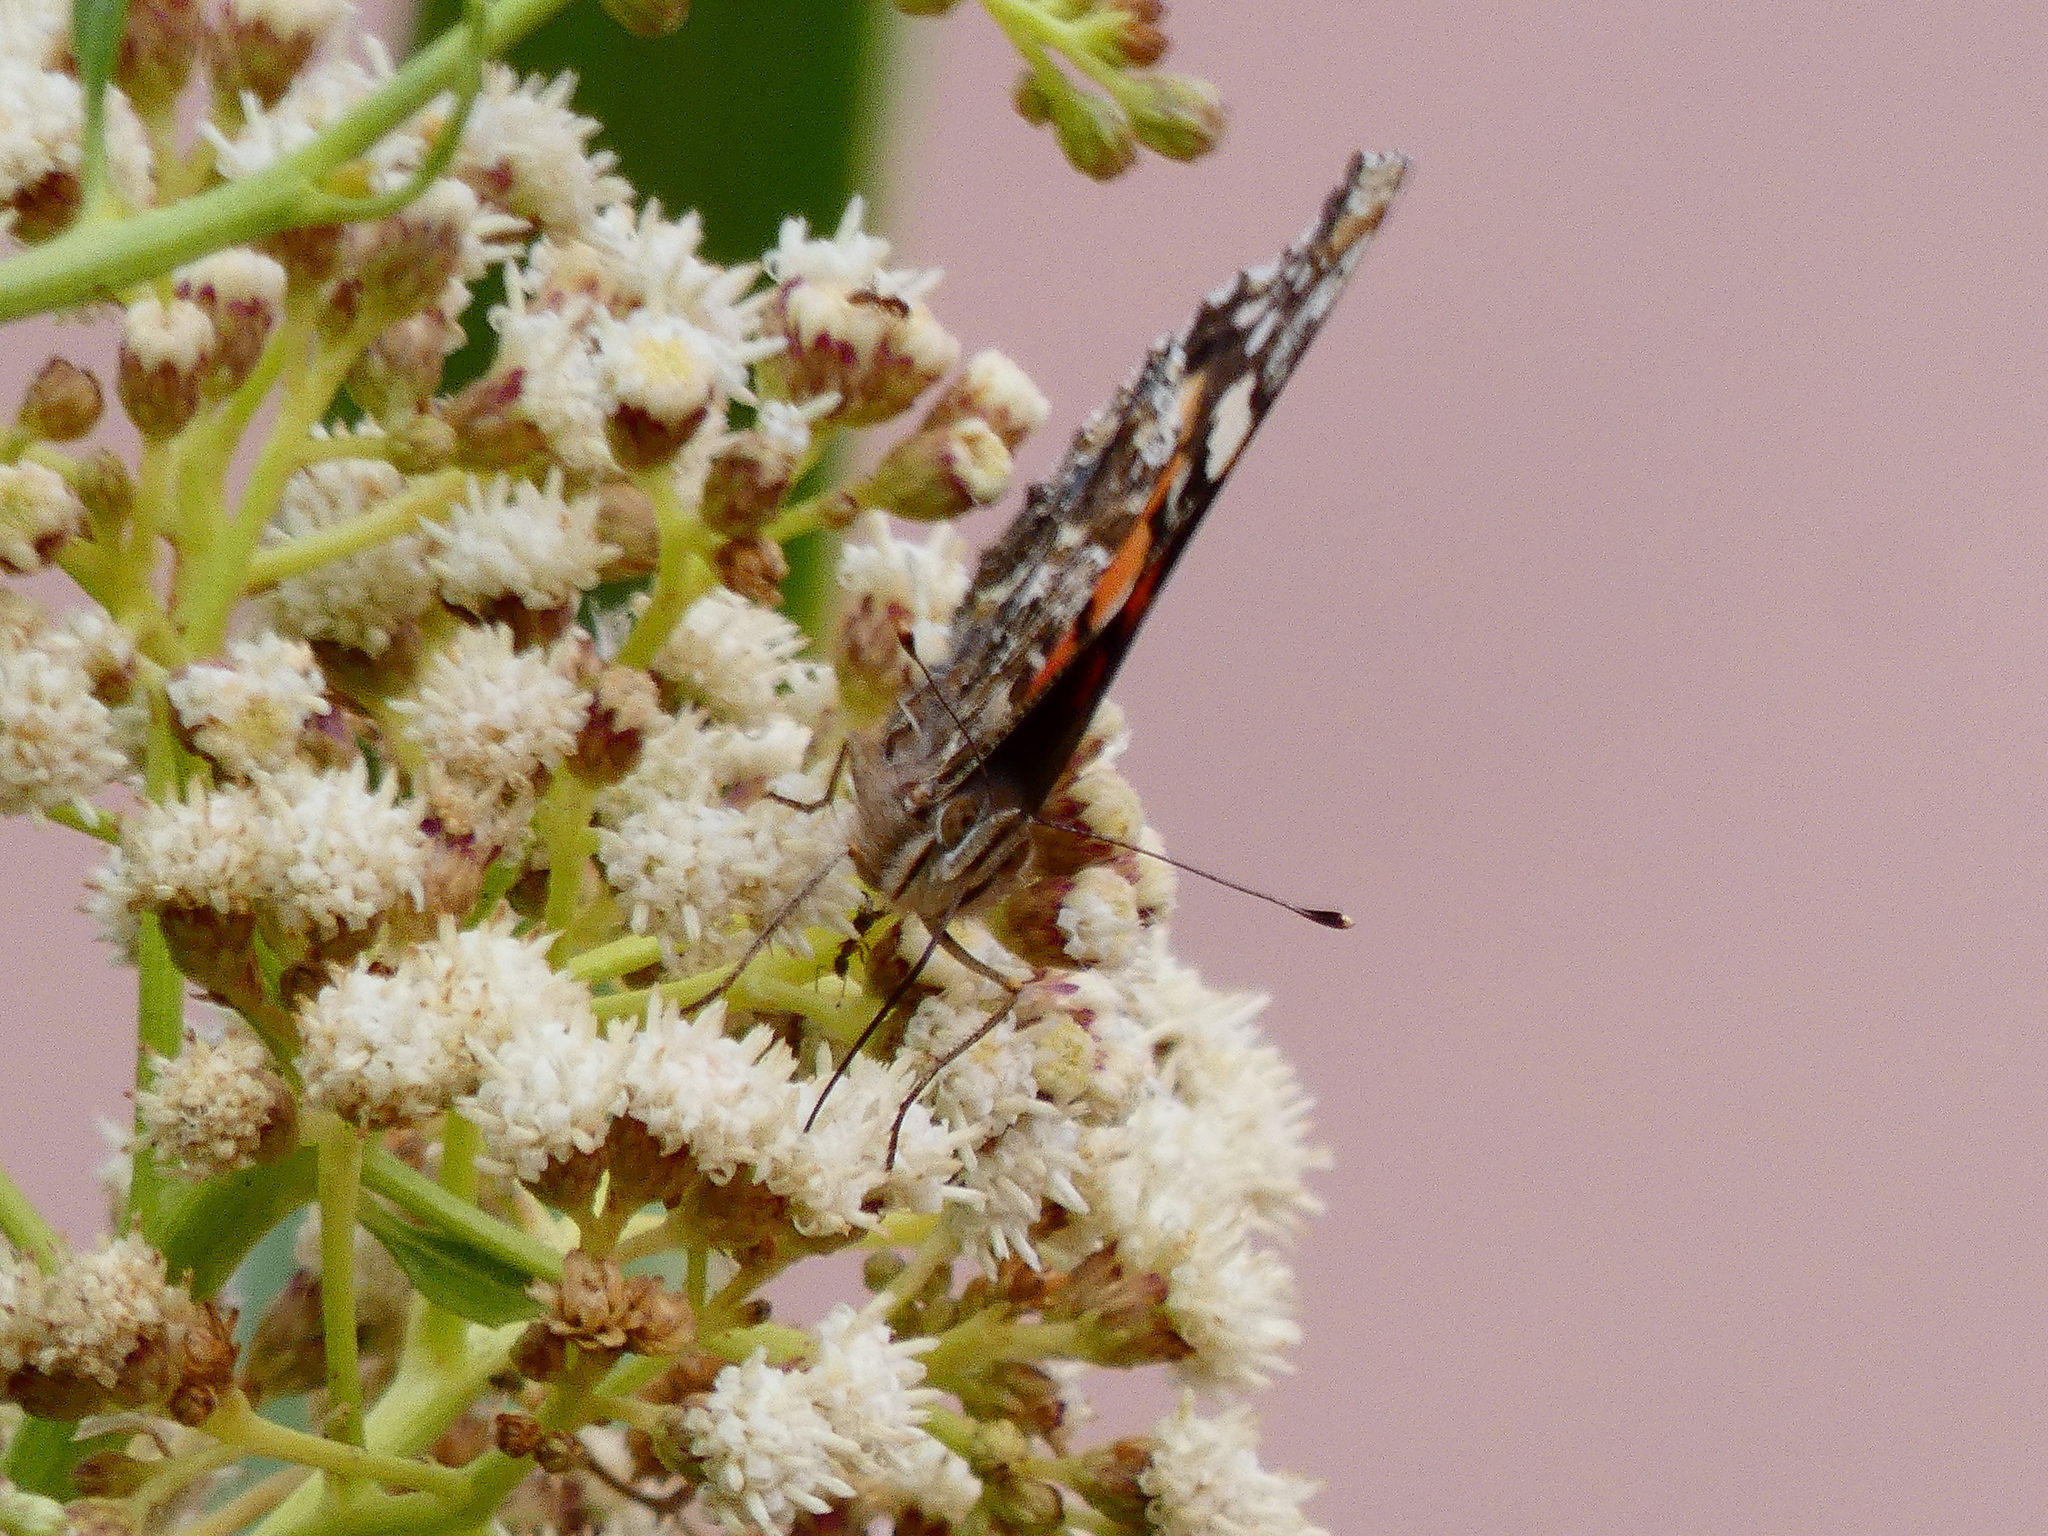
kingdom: Animalia
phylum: Arthropoda
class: Insecta
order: Lepidoptera
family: Nymphalidae
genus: Vanessa
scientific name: Vanessa carye
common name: Subtropical lady
